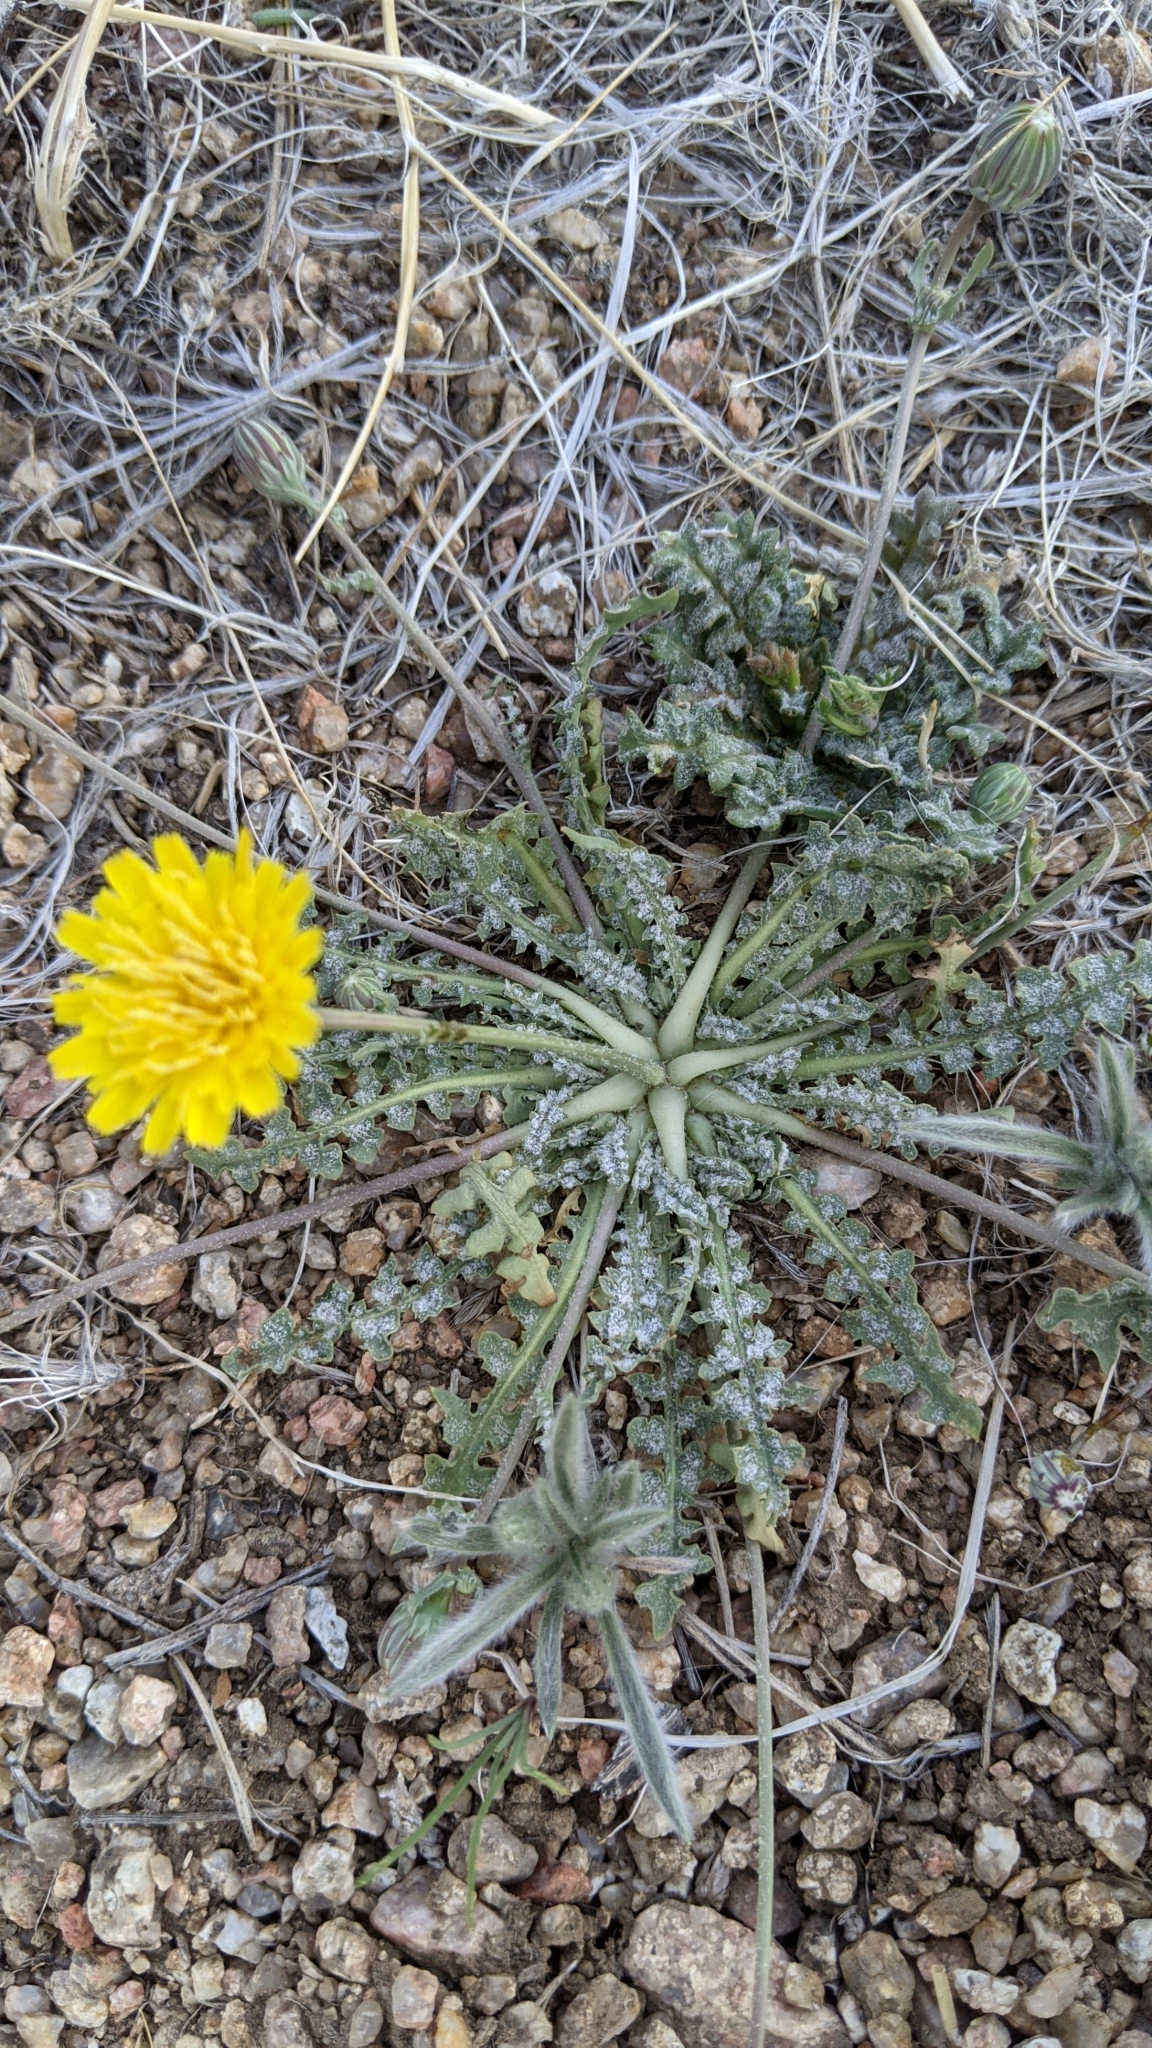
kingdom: Plantae
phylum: Tracheophyta
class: Magnoliopsida
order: Asterales
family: Asteraceae
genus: Malacothrix
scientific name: Malacothrix fendleri
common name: Fendler's desert-dandelion
